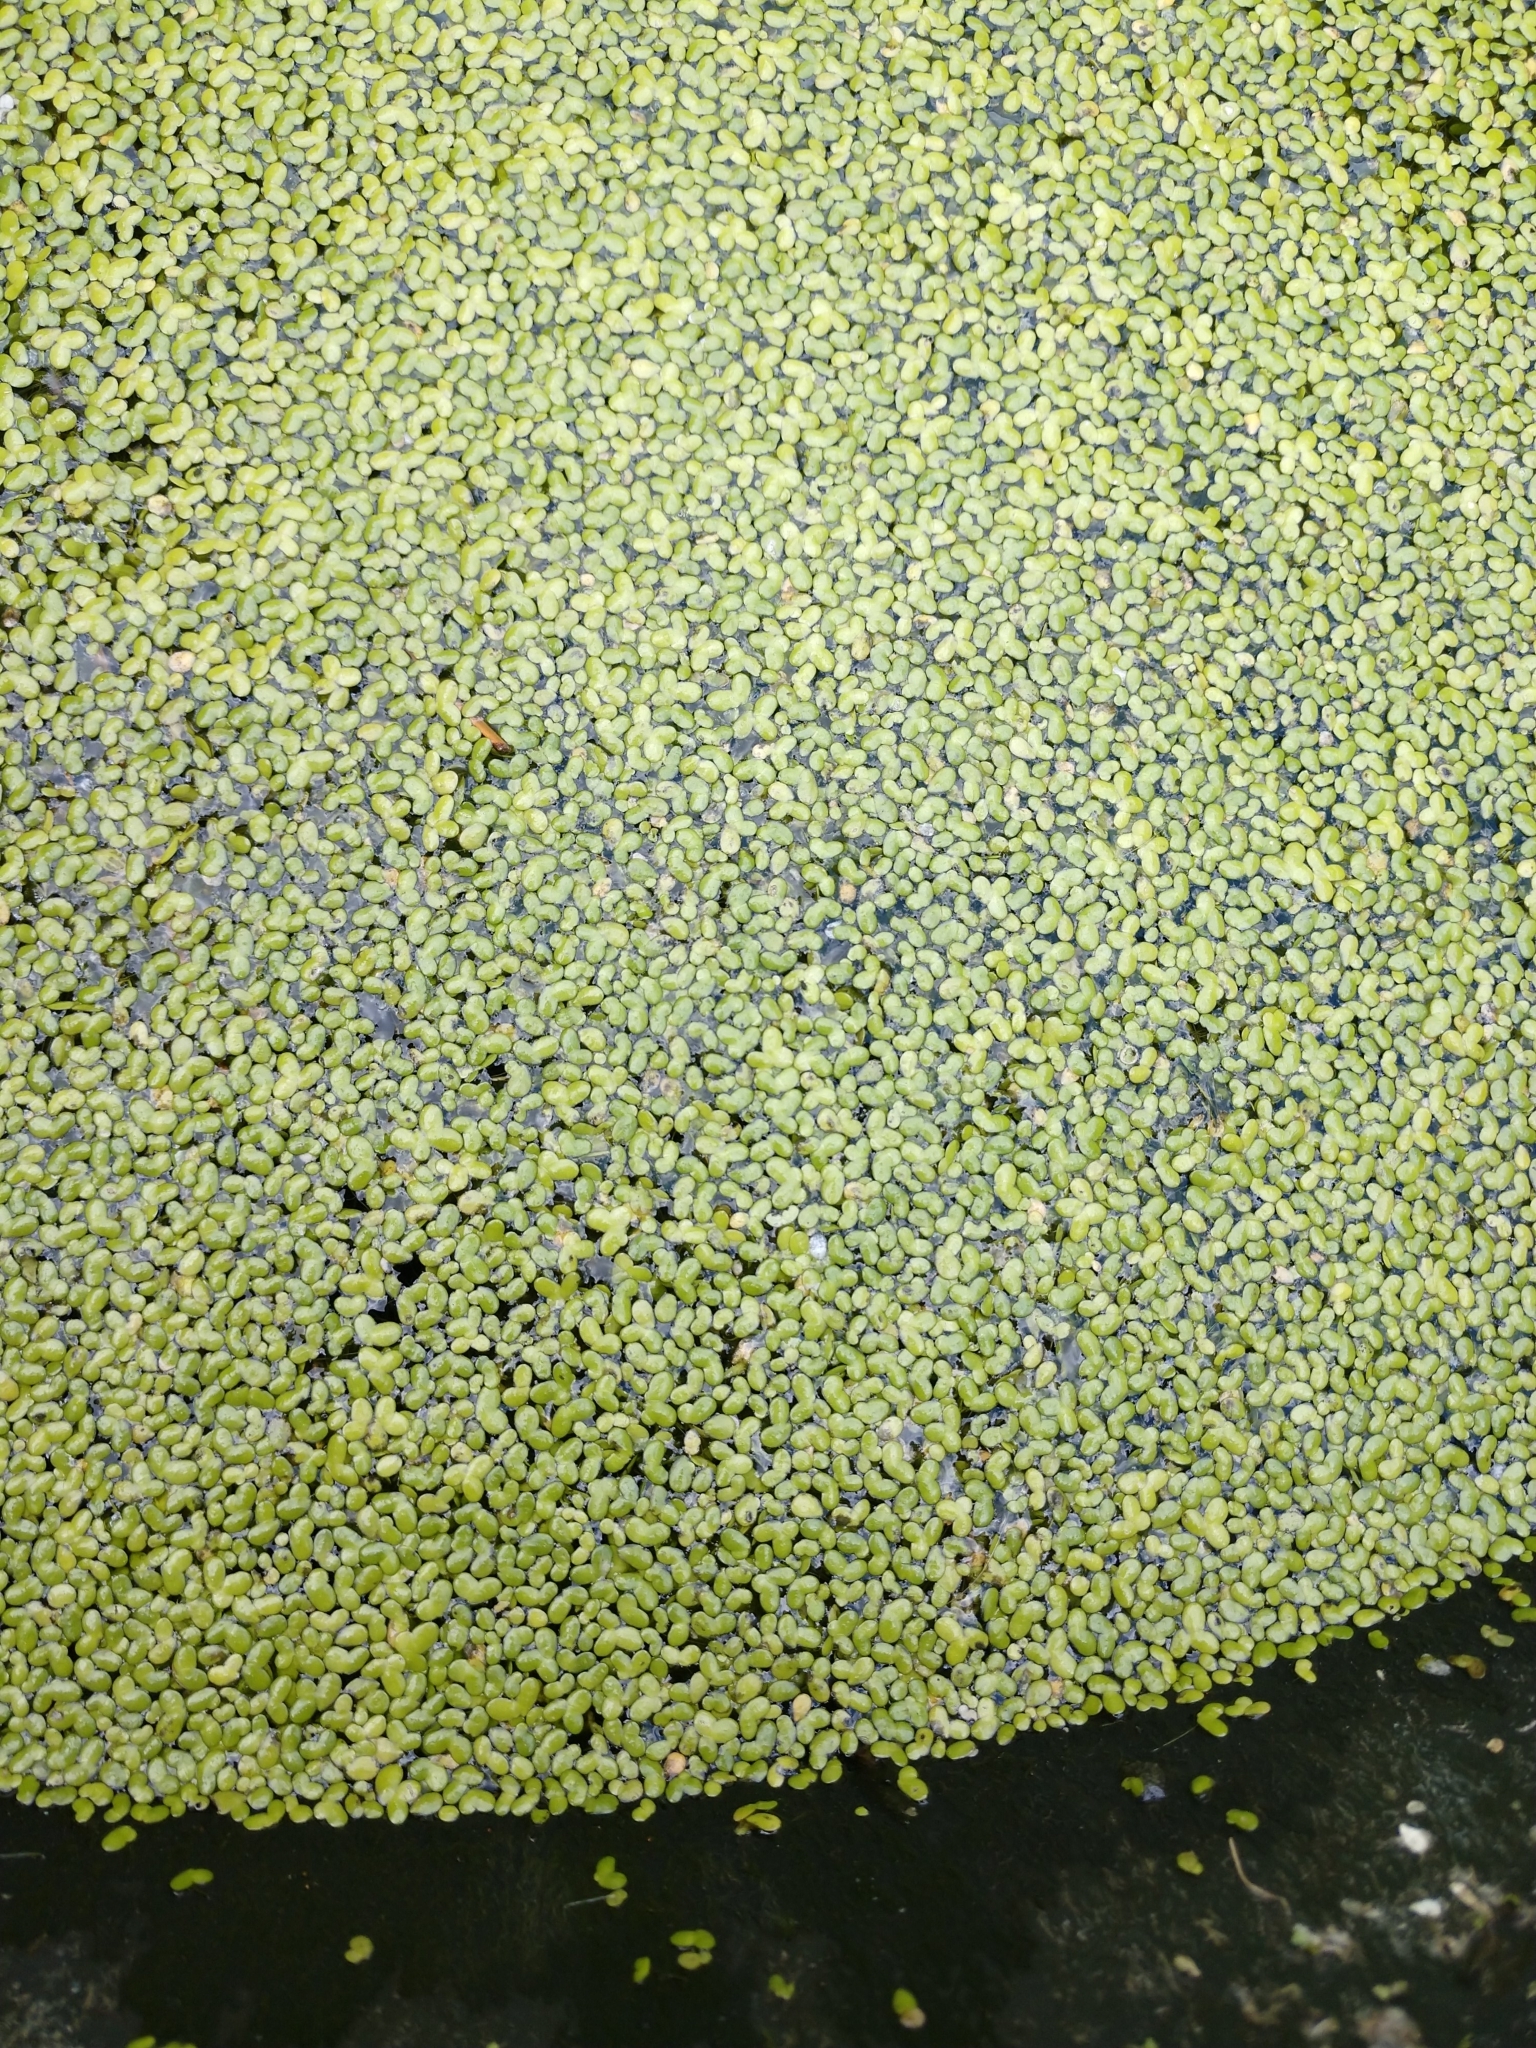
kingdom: Plantae
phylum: Tracheophyta
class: Liliopsida
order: Alismatales
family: Araceae
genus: Lemna
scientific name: Lemna minor
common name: Common duckweed
